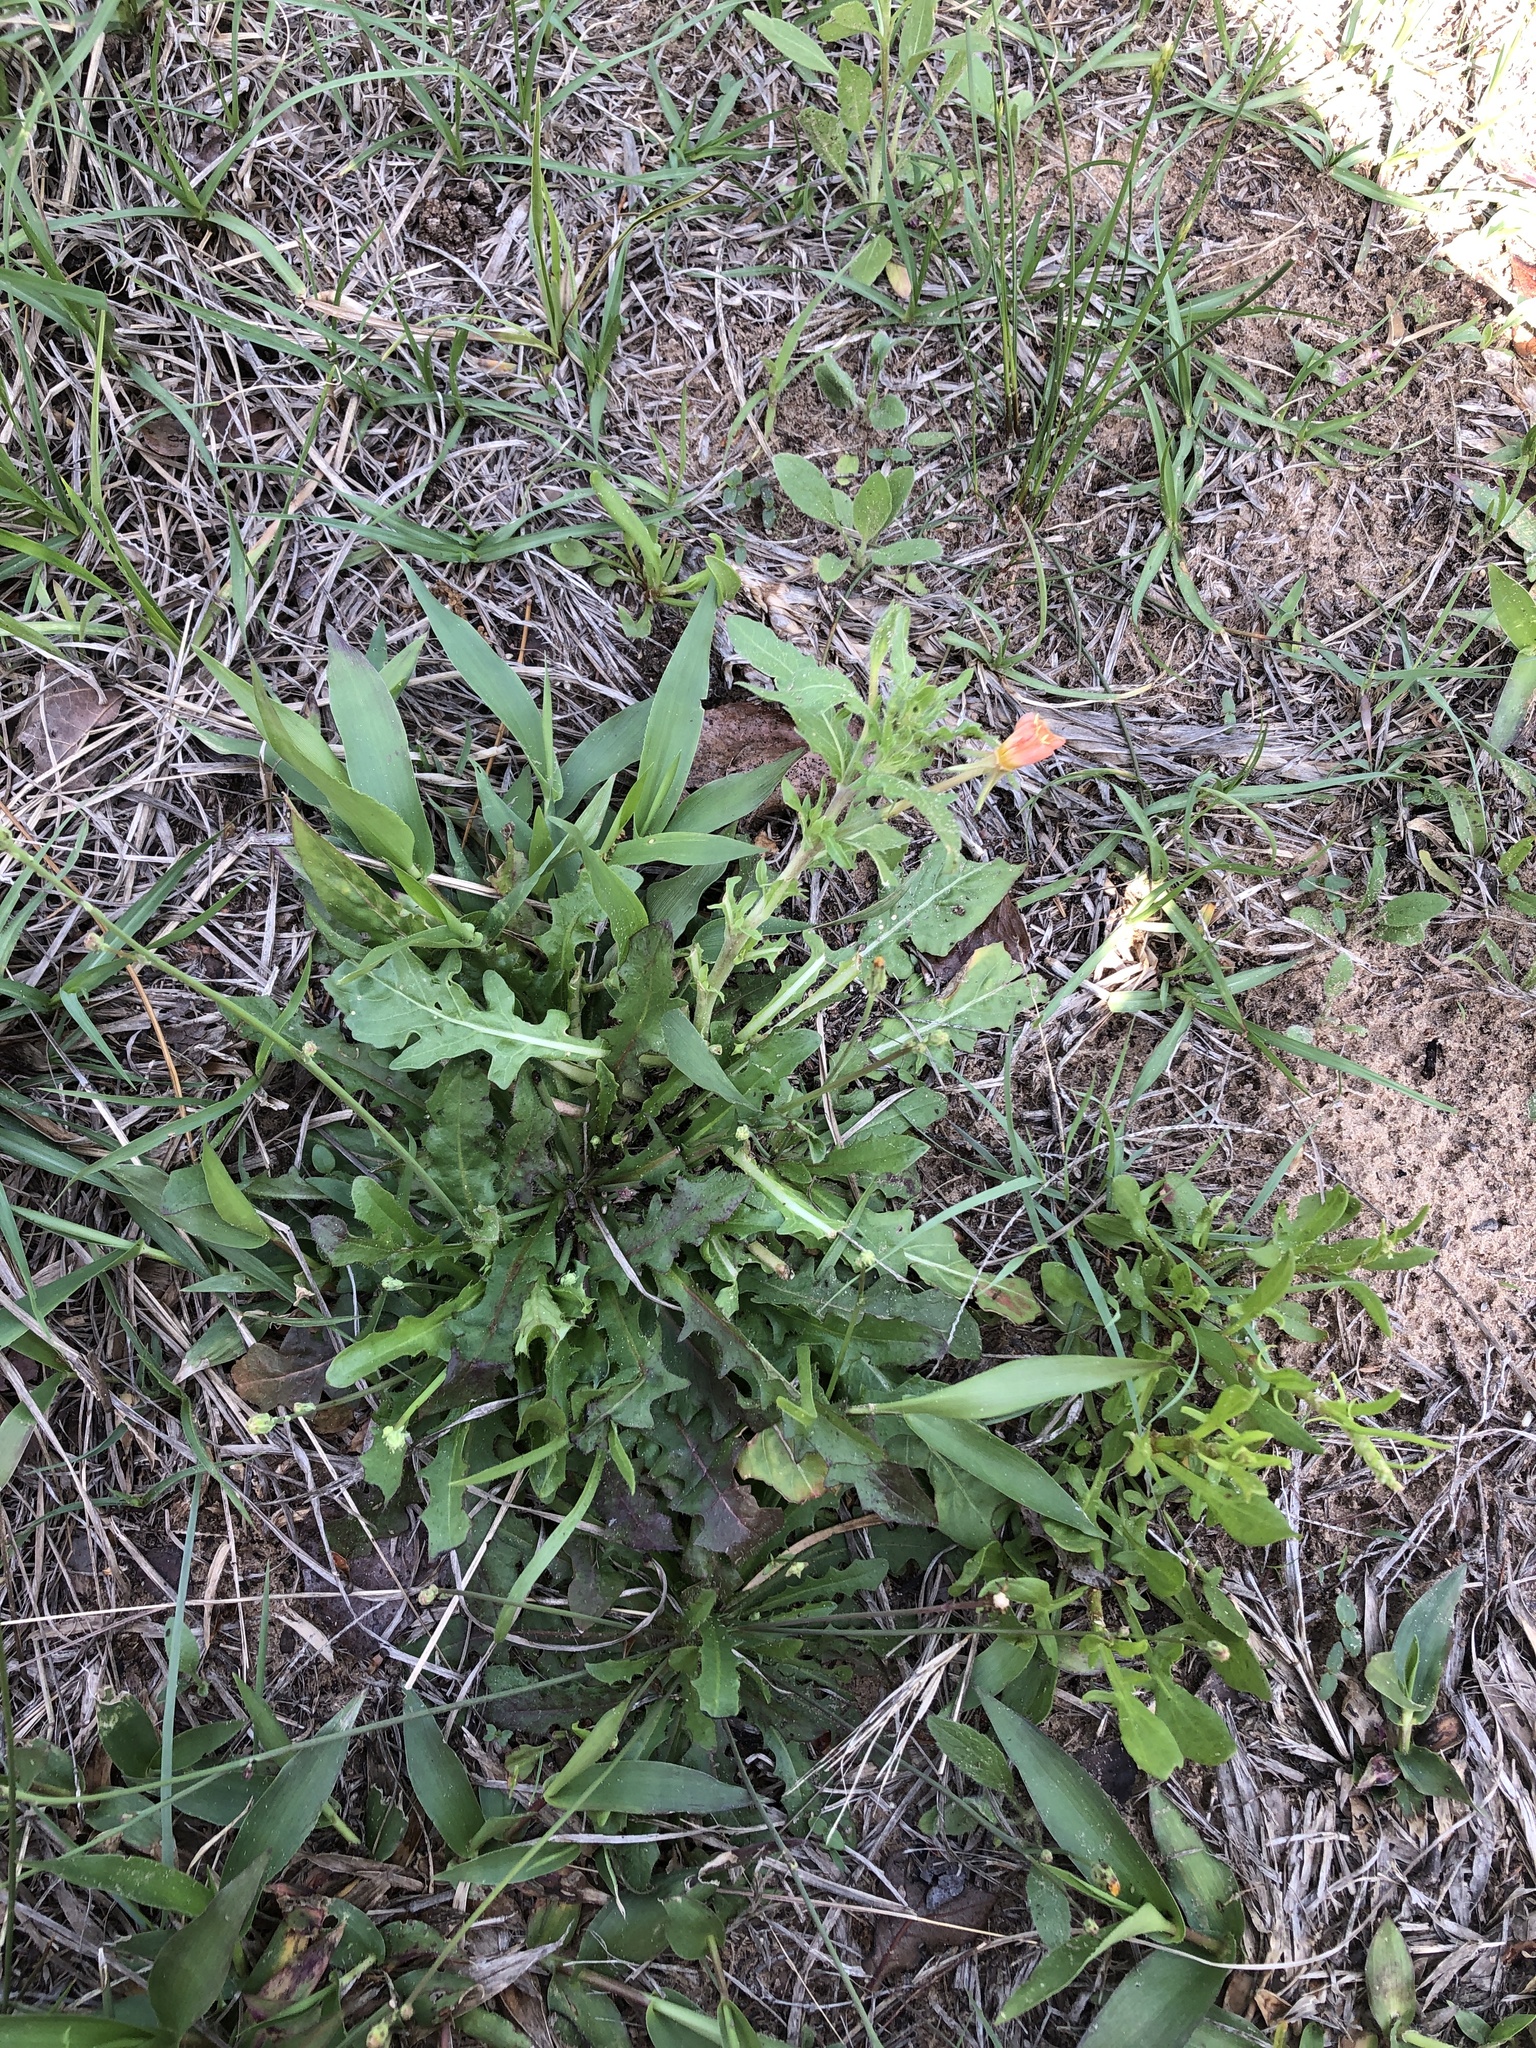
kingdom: Plantae
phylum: Tracheophyta
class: Magnoliopsida
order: Myrtales
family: Onagraceae
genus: Oenothera
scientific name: Oenothera laciniata
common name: Cut-leaved evening-primrose
